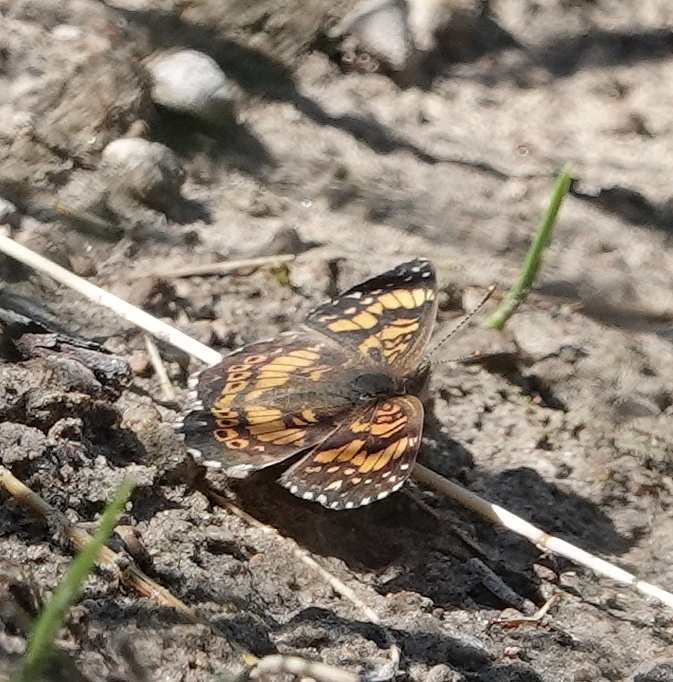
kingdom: Animalia
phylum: Arthropoda
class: Insecta
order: Lepidoptera
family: Nymphalidae
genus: Chlosyne
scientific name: Chlosyne gorgone
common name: Gorgone checkerspot
